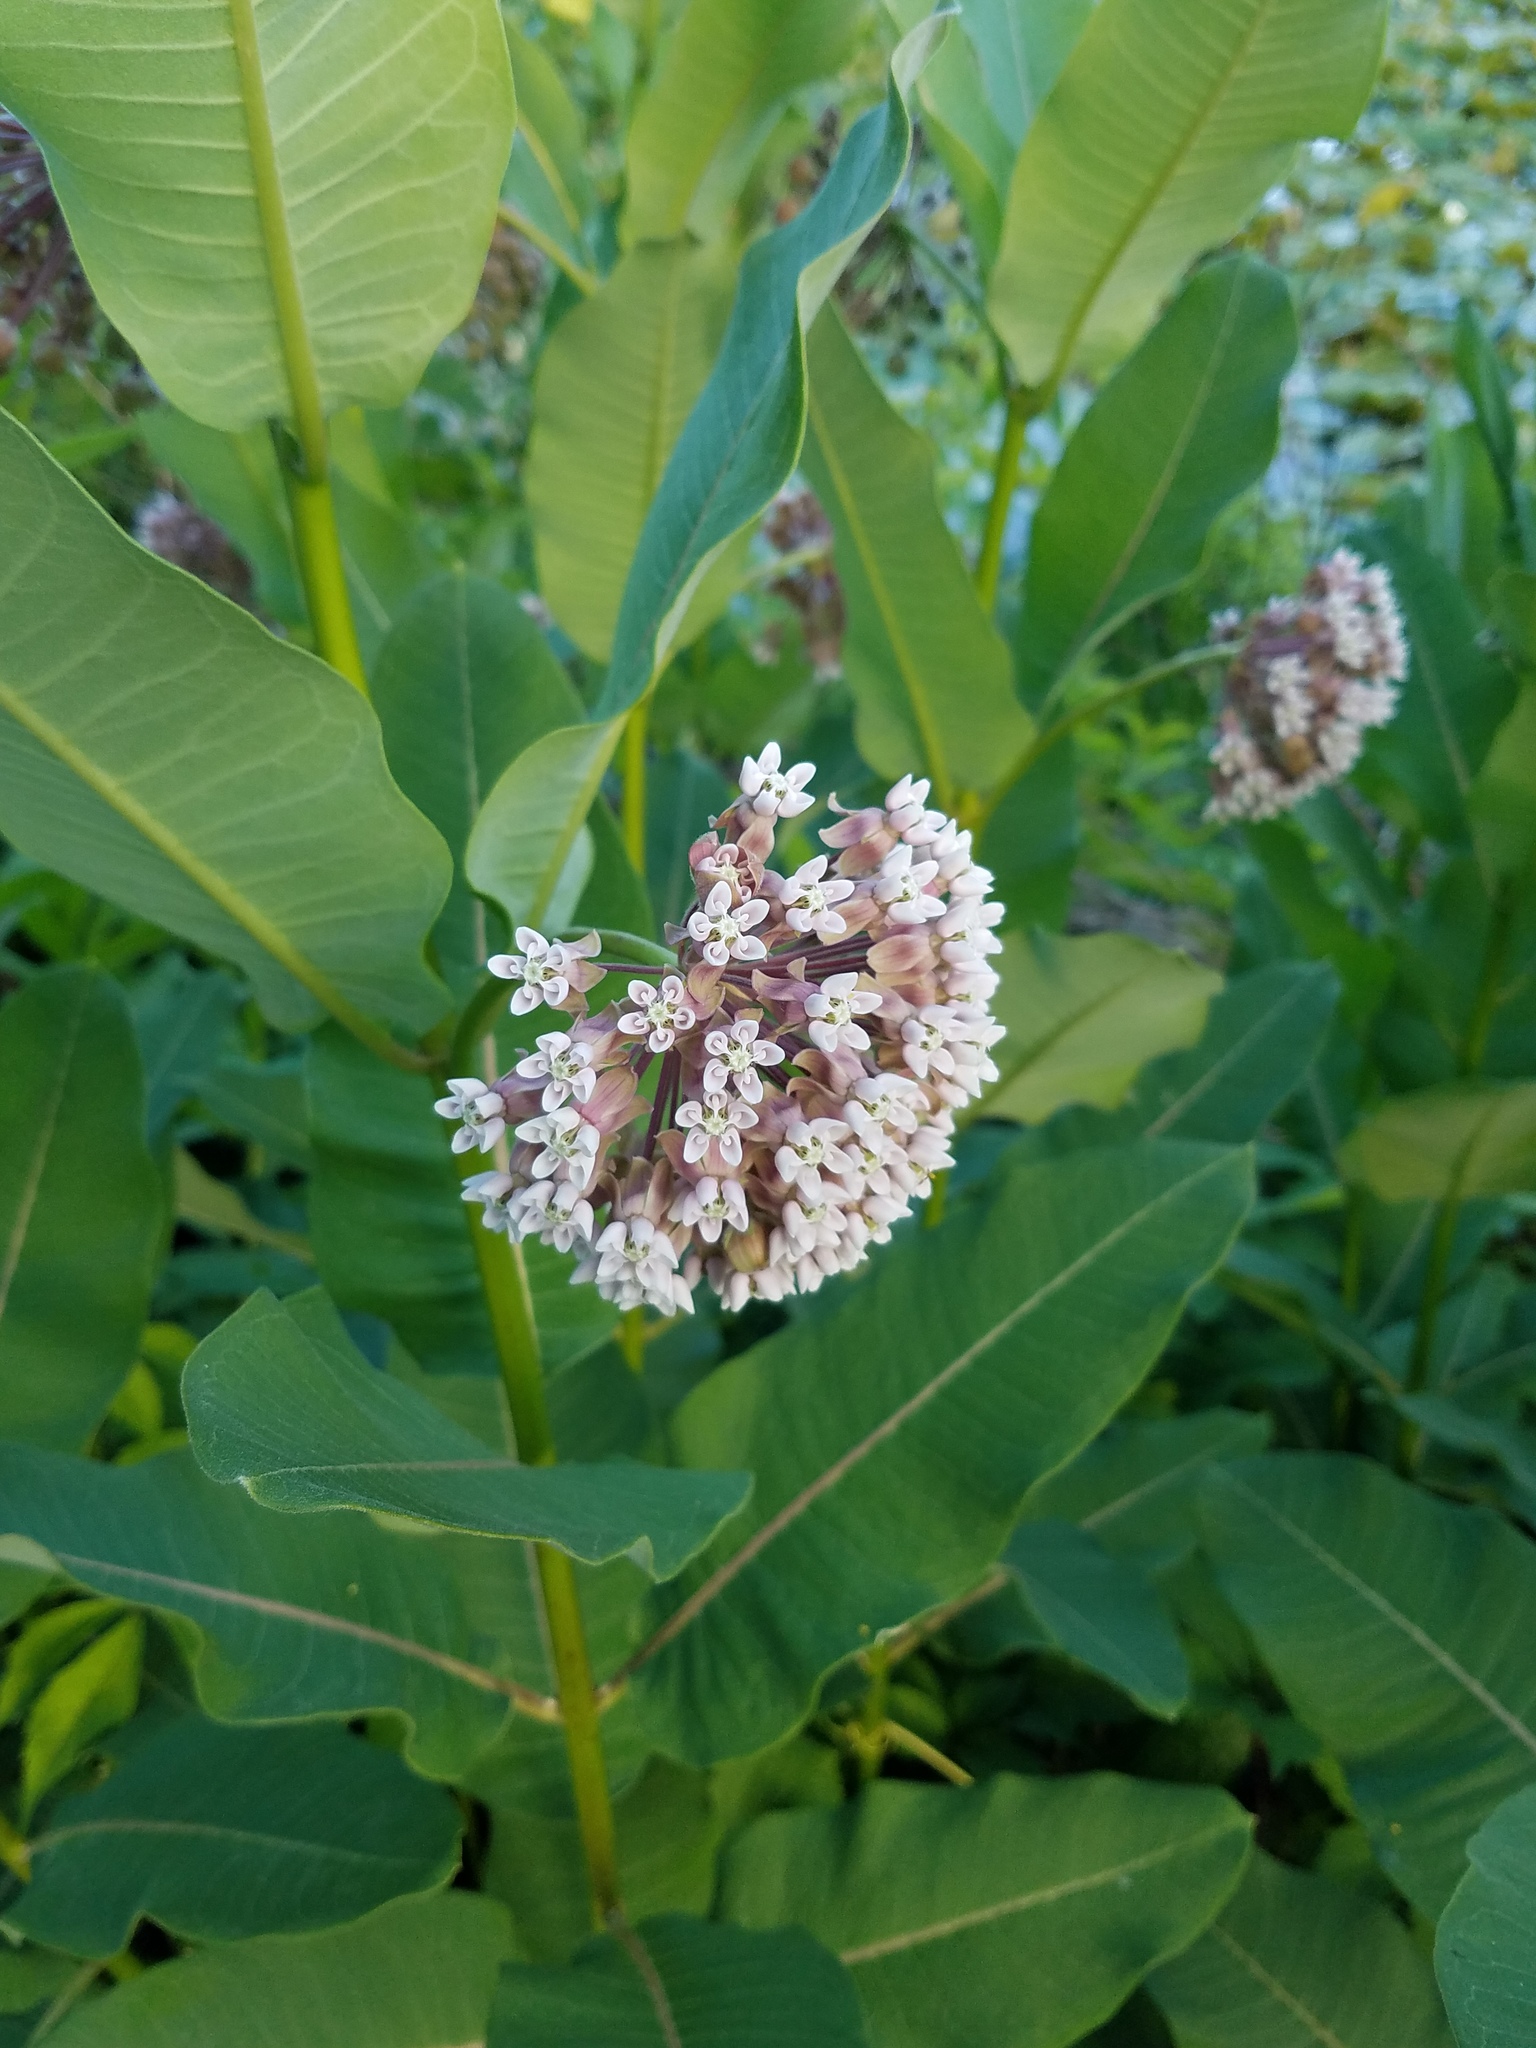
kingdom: Plantae
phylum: Tracheophyta
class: Magnoliopsida
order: Gentianales
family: Apocynaceae
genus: Asclepias
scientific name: Asclepias syriaca
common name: Common milkweed
